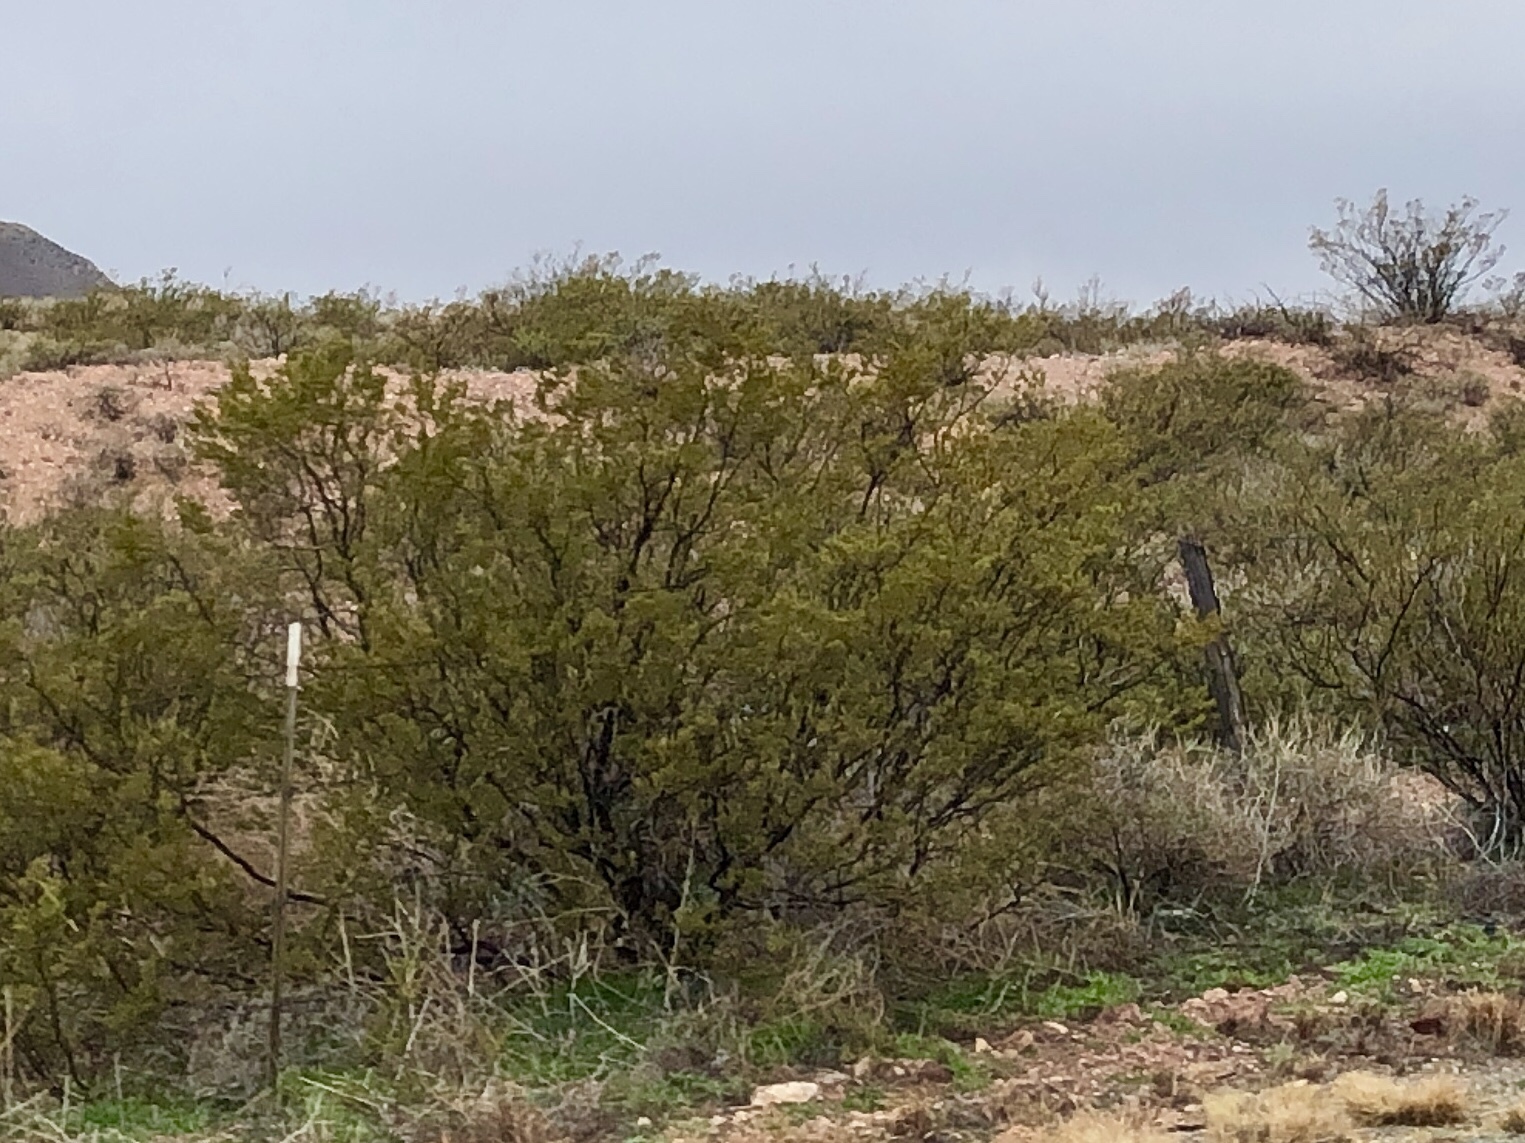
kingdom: Plantae
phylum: Tracheophyta
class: Magnoliopsida
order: Zygophyllales
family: Zygophyllaceae
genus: Larrea
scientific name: Larrea tridentata
